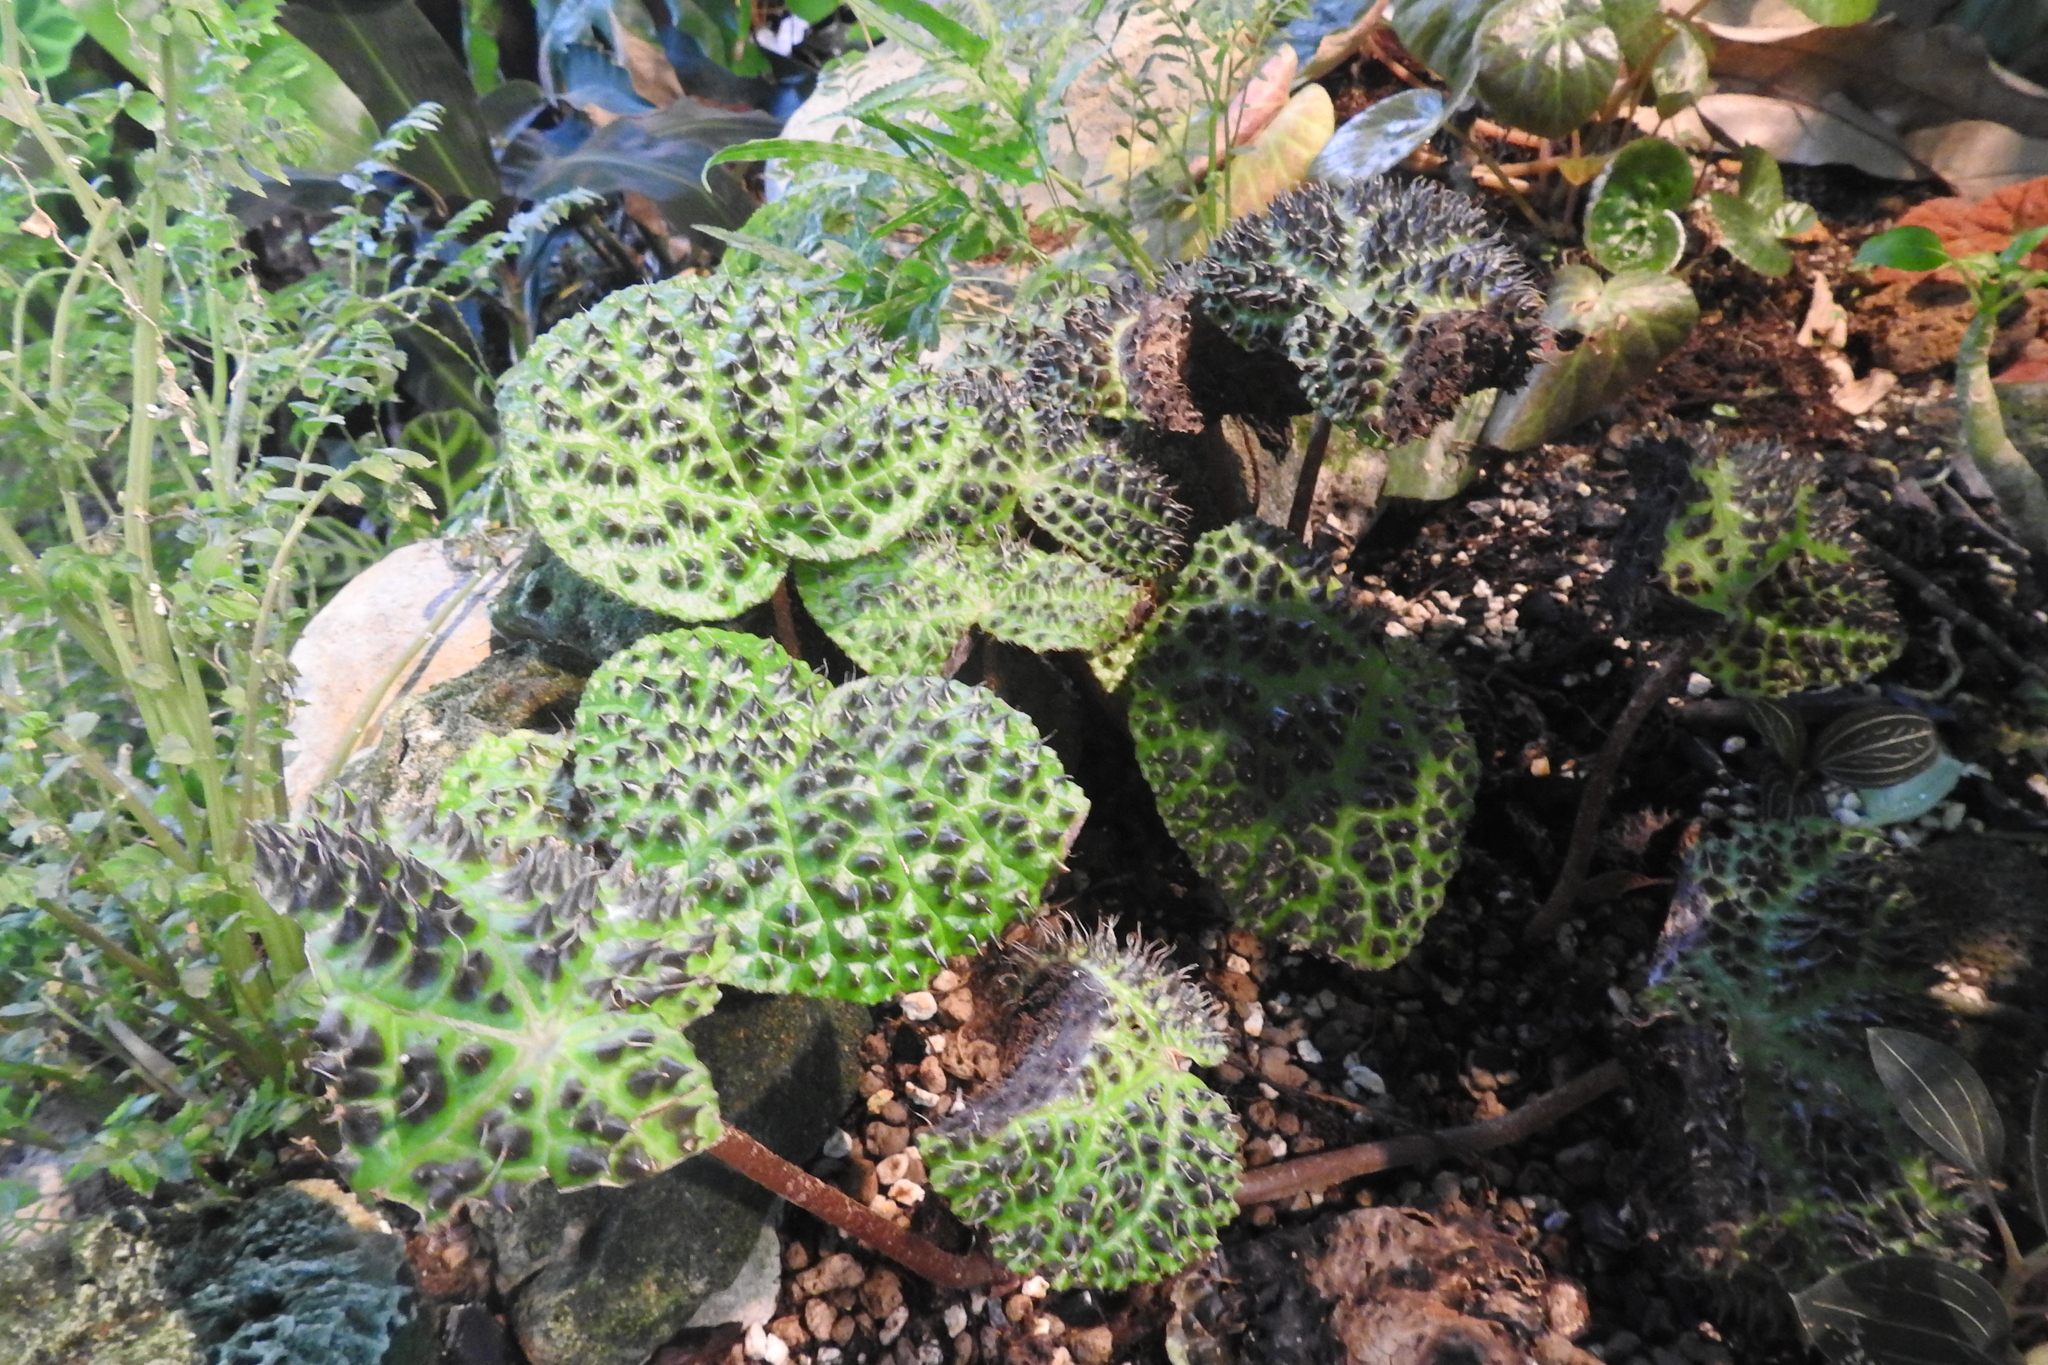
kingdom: Plantae
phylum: Tracheophyta
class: Magnoliopsida
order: Cucurbitales
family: Begoniaceae
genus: Begonia
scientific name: Begonia melanobullata
